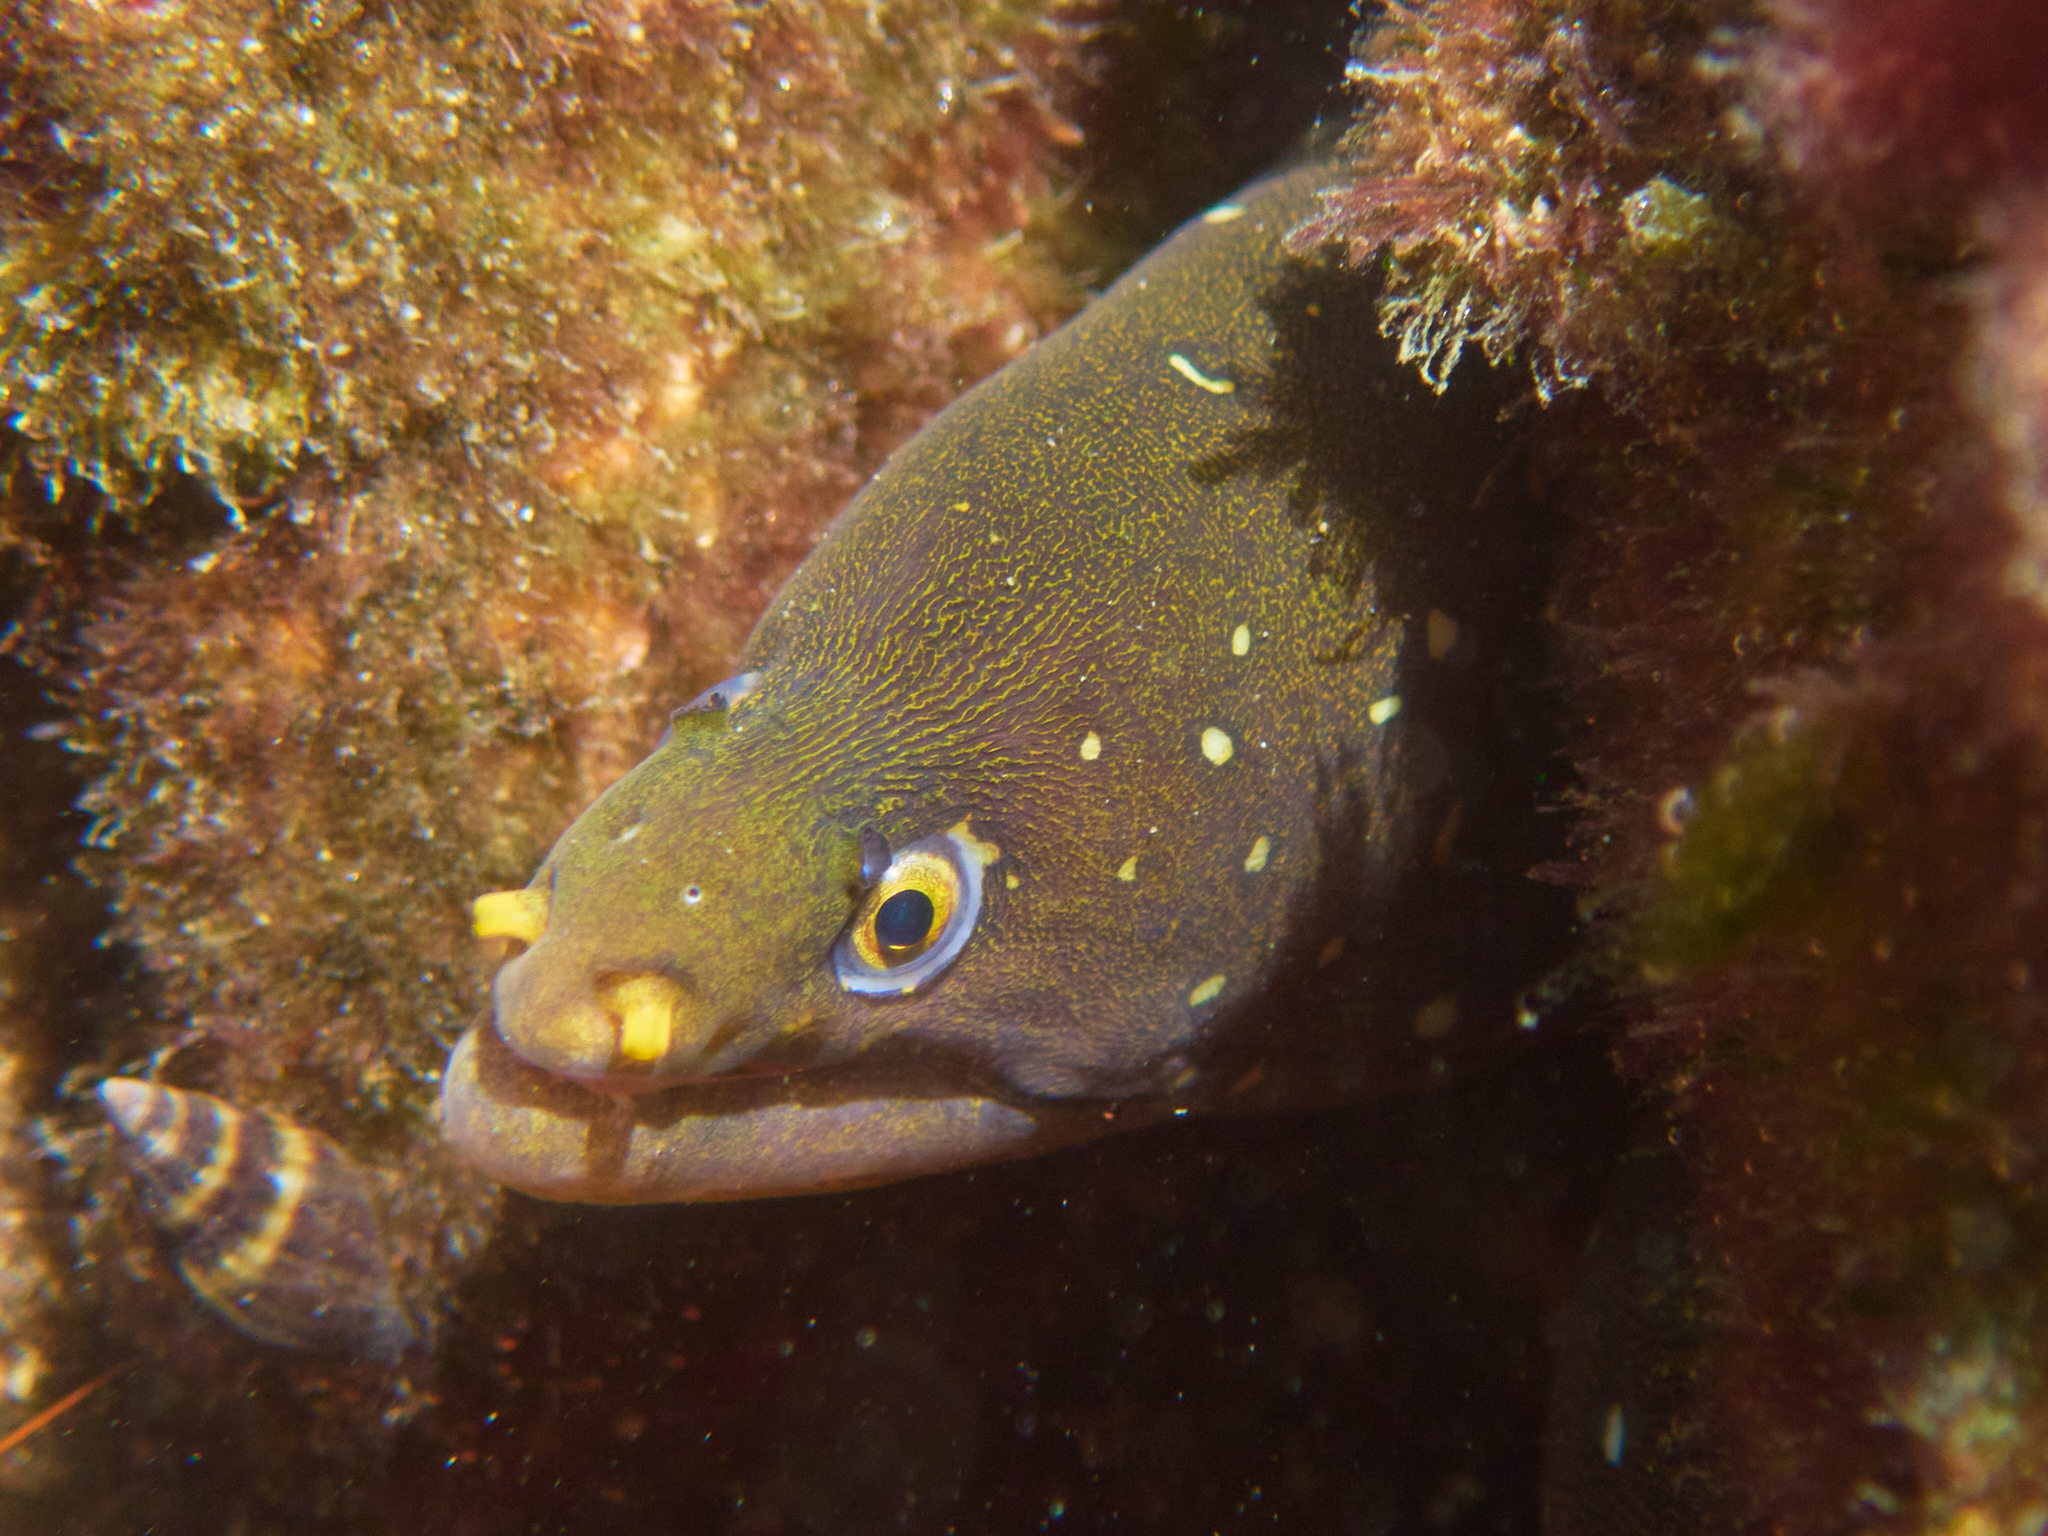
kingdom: Animalia
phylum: Chordata
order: Anguilliformes
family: Muraenidae
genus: Echidna
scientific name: Echidna nocturna
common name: Palenose moray
